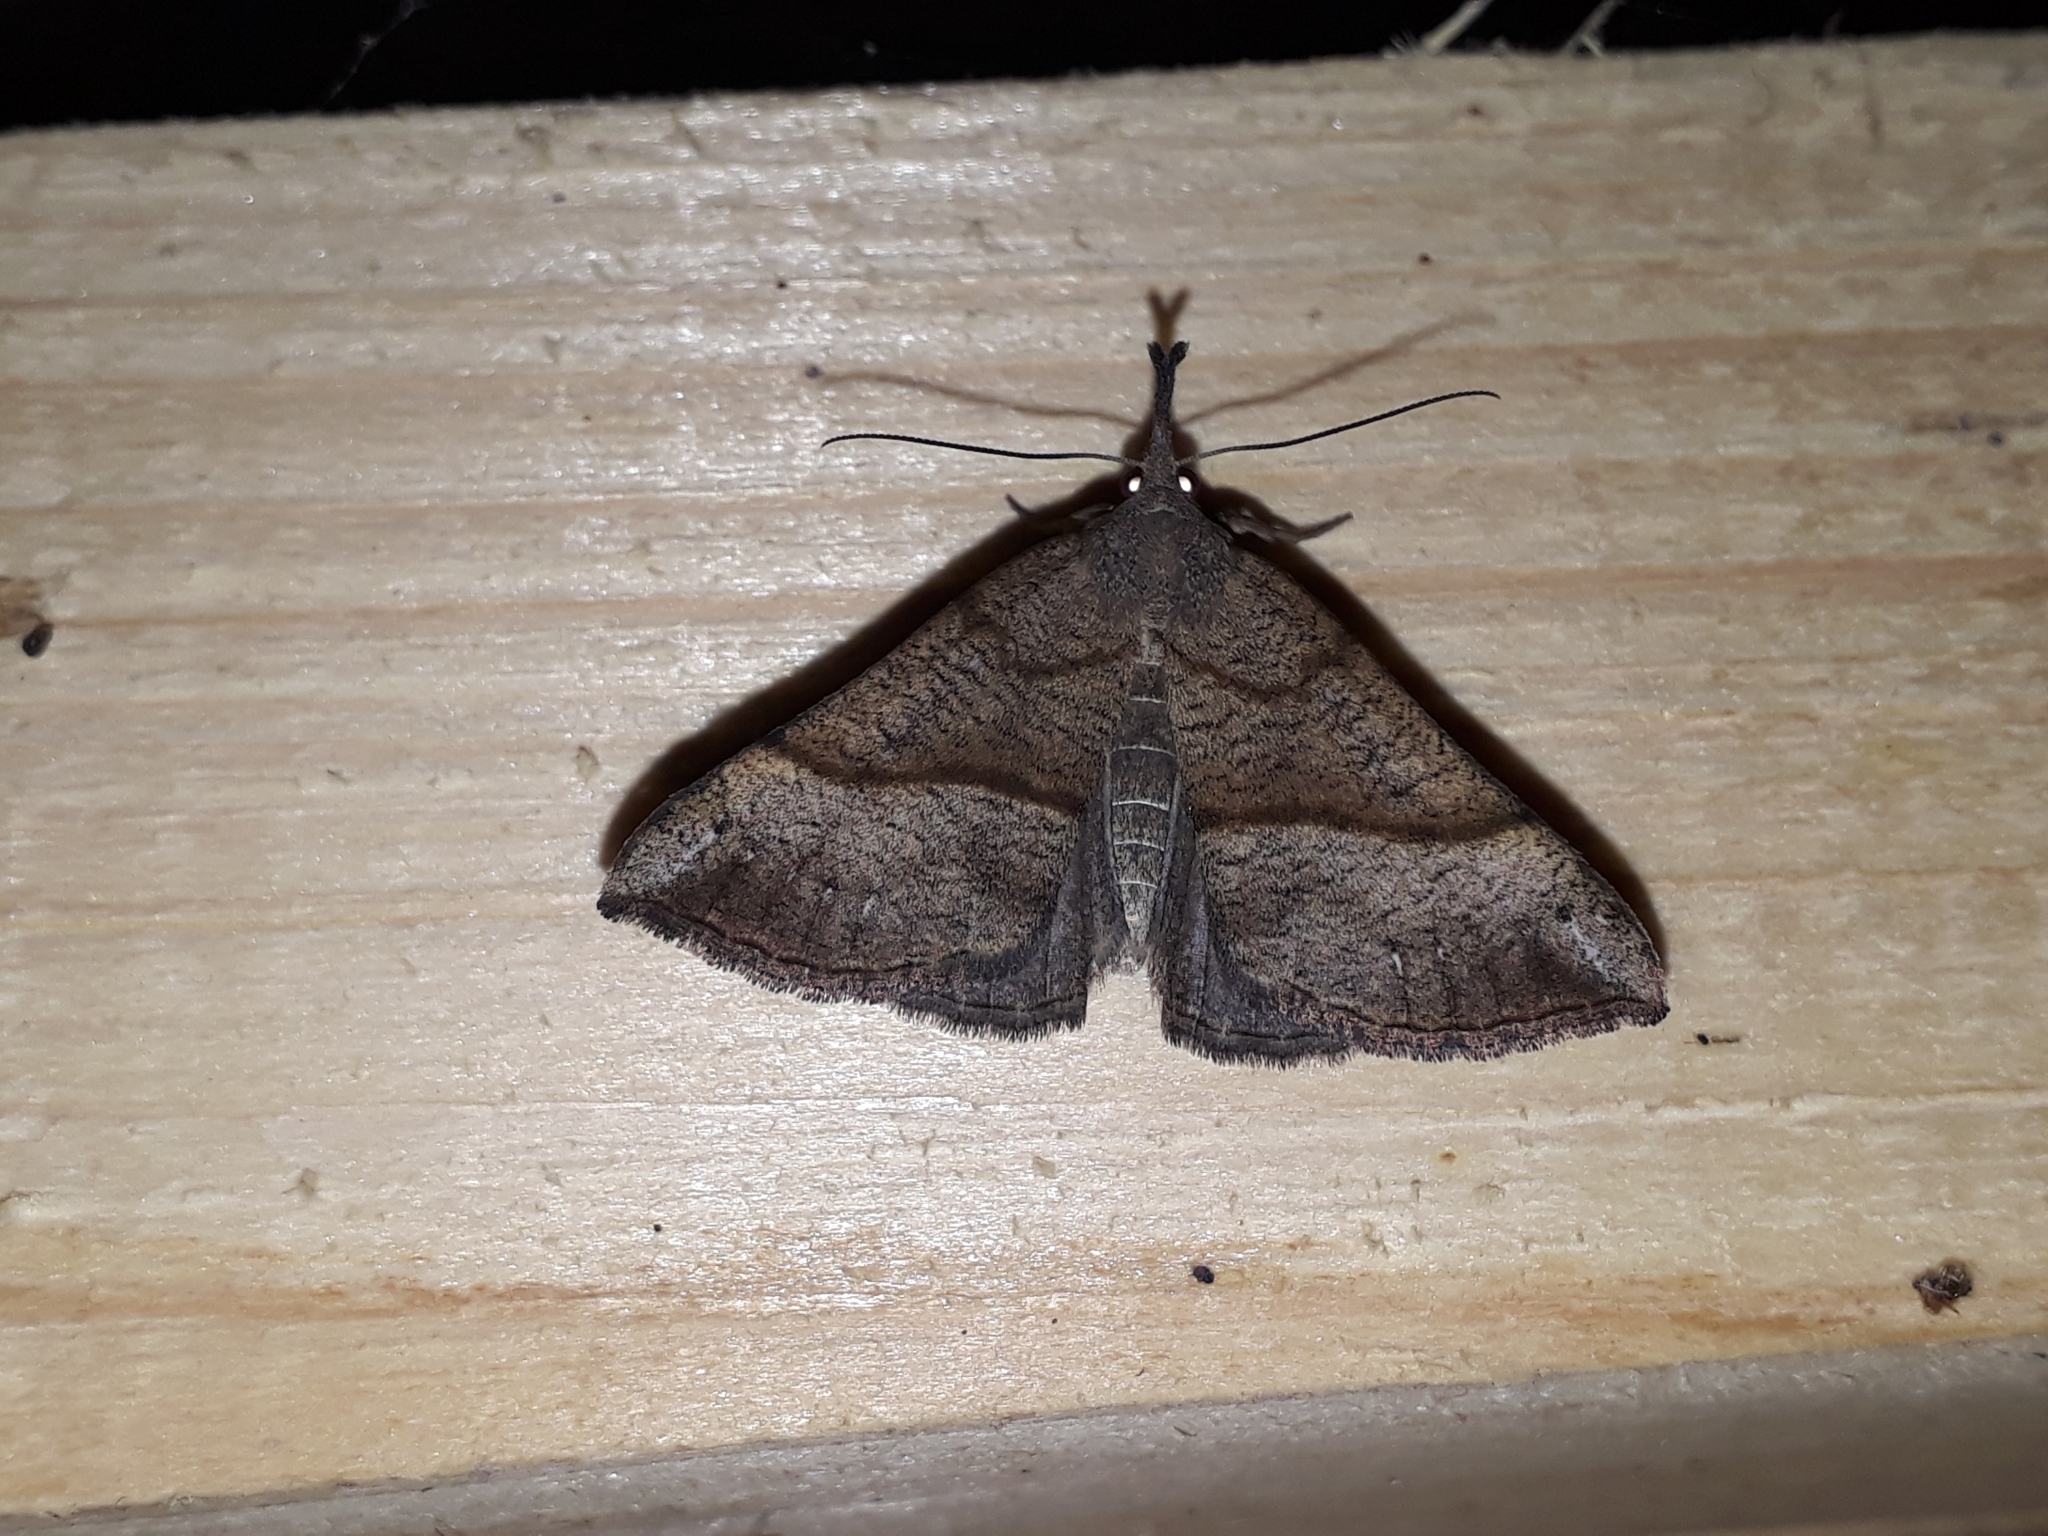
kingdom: Animalia
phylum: Arthropoda
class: Insecta
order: Lepidoptera
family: Erebidae
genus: Hypena
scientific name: Hypena proboscidalis
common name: Snout
